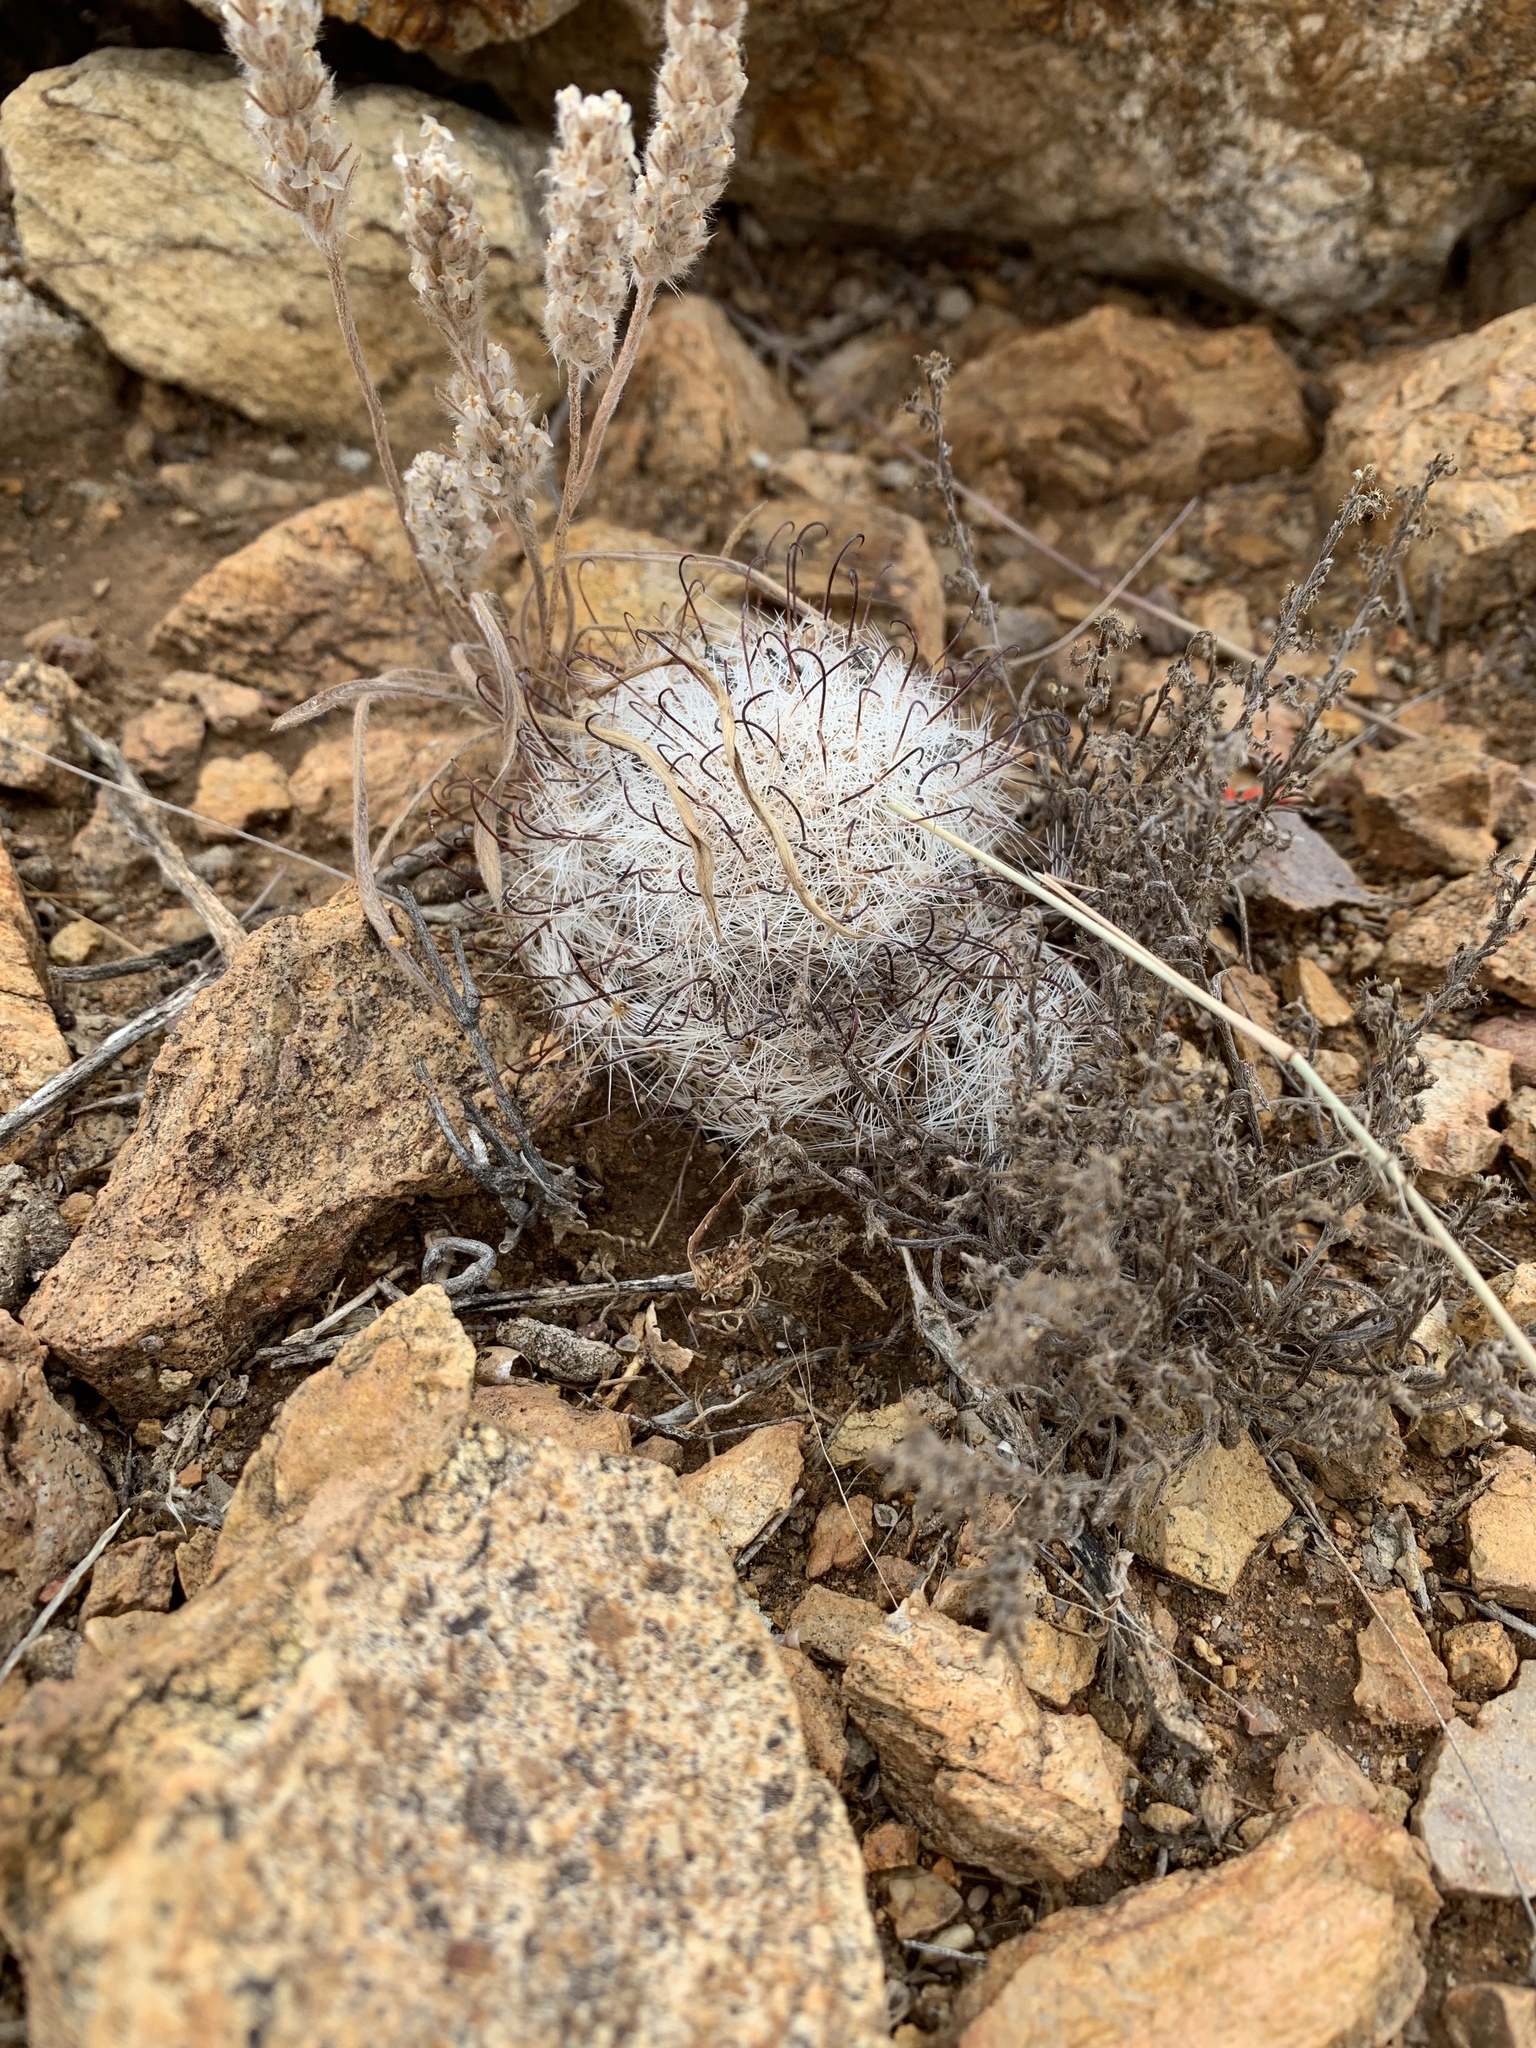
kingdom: Plantae
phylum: Tracheophyta
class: Magnoliopsida
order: Caryophyllales
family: Cactaceae
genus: Cochemiea
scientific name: Cochemiea grahamii
